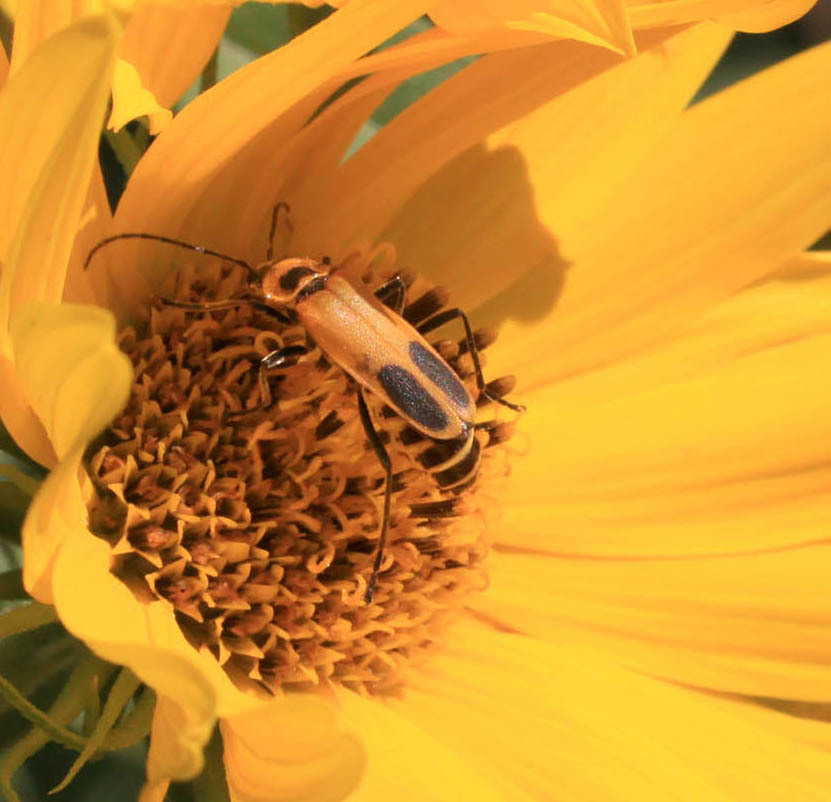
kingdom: Animalia
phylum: Arthropoda
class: Insecta
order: Coleoptera
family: Cantharidae
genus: Chauliognathus
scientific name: Chauliognathus pensylvanicus
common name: Goldenrod soldier beetle
